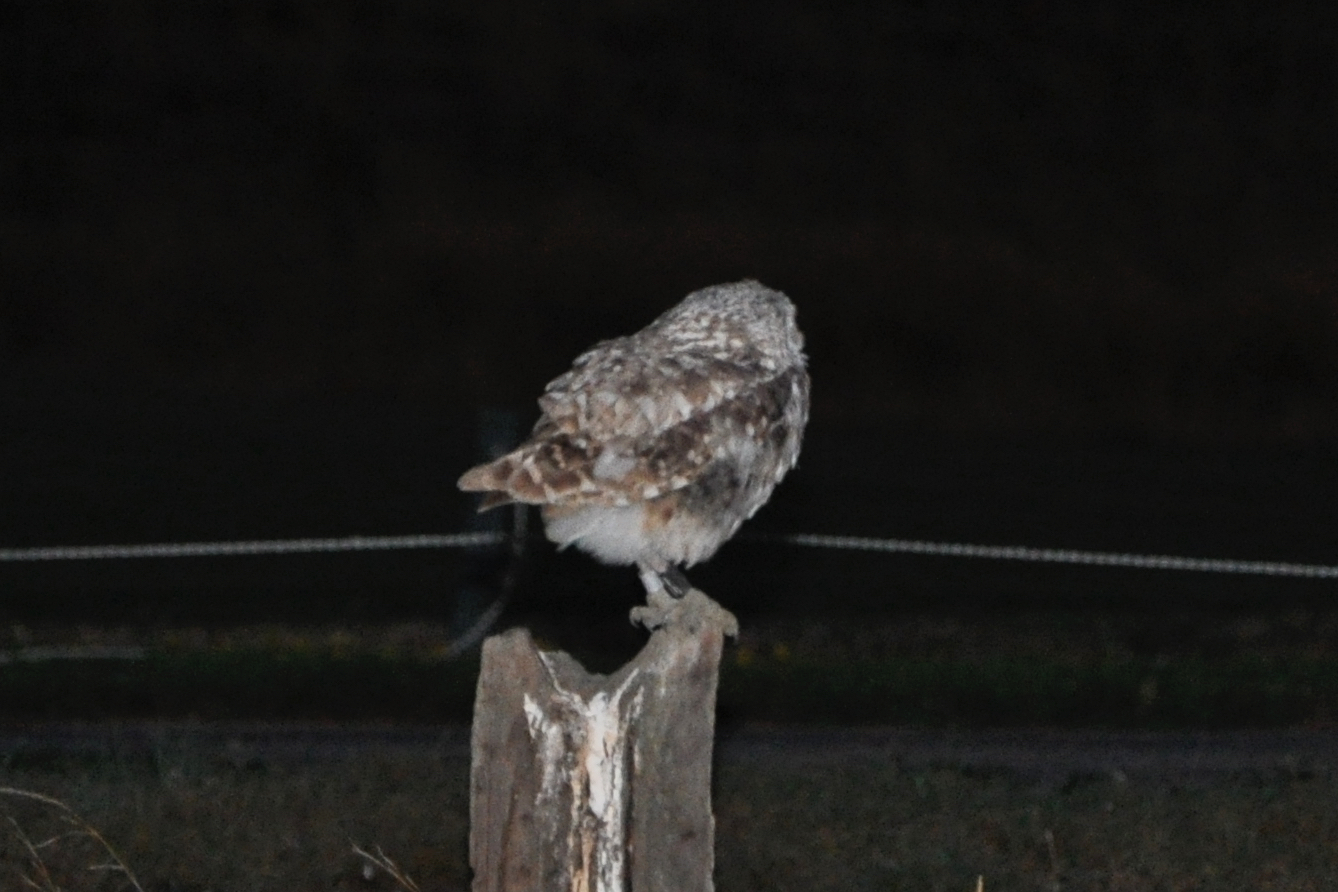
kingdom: Animalia
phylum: Chordata
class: Aves
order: Strigiformes
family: Strigidae
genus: Athene
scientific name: Athene cunicularia
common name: Burrowing owl
